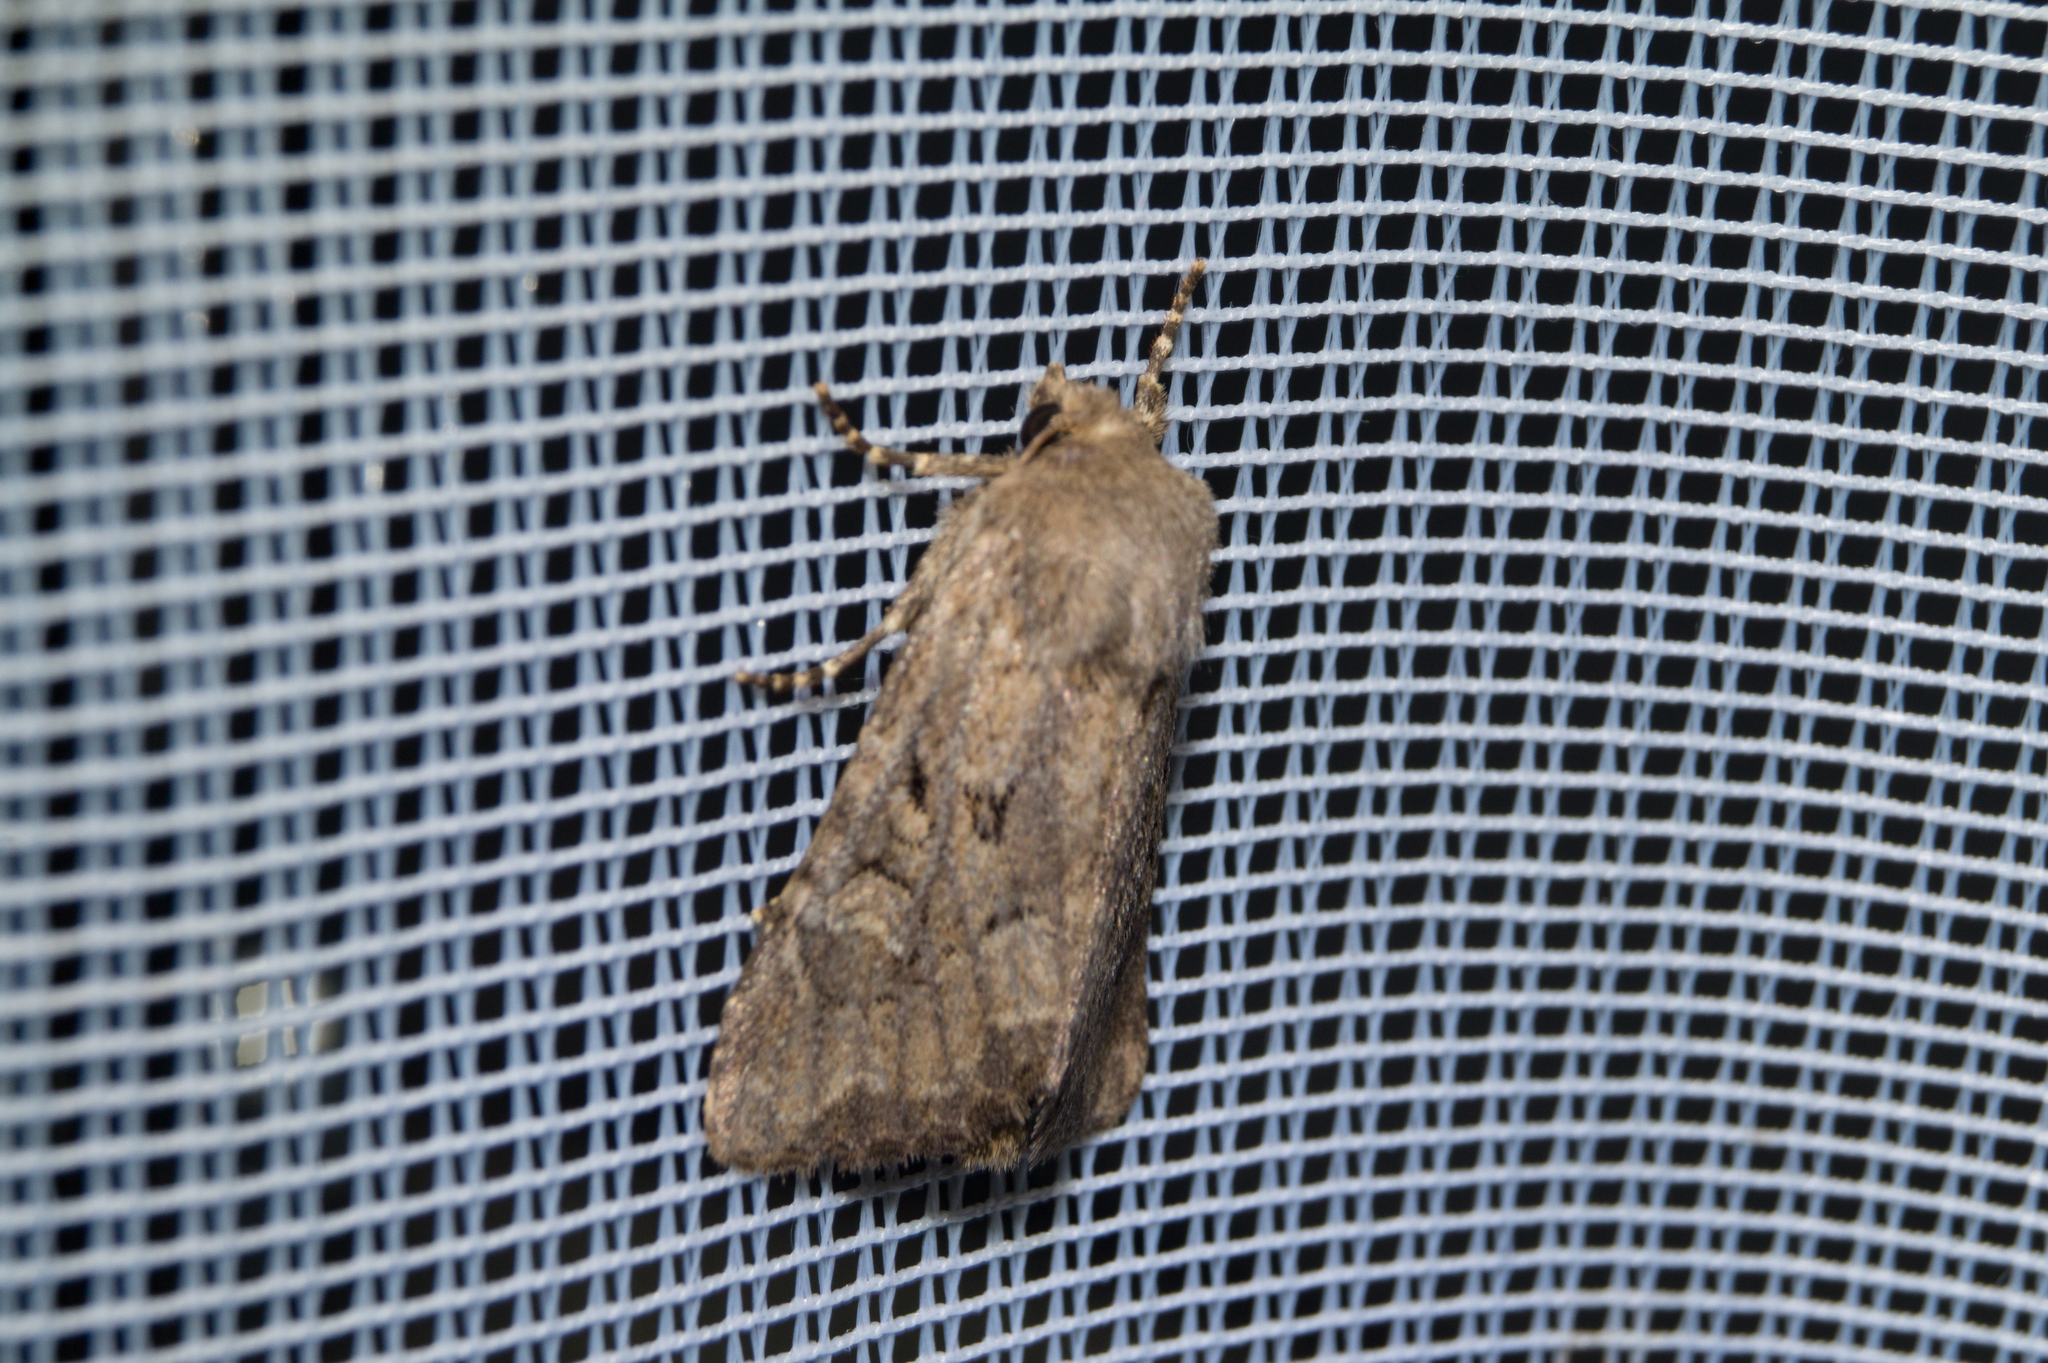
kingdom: Animalia
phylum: Arthropoda
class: Insecta
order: Lepidoptera
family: Noctuidae
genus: Luperina
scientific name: Luperina testacea
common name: Flounced rustic
